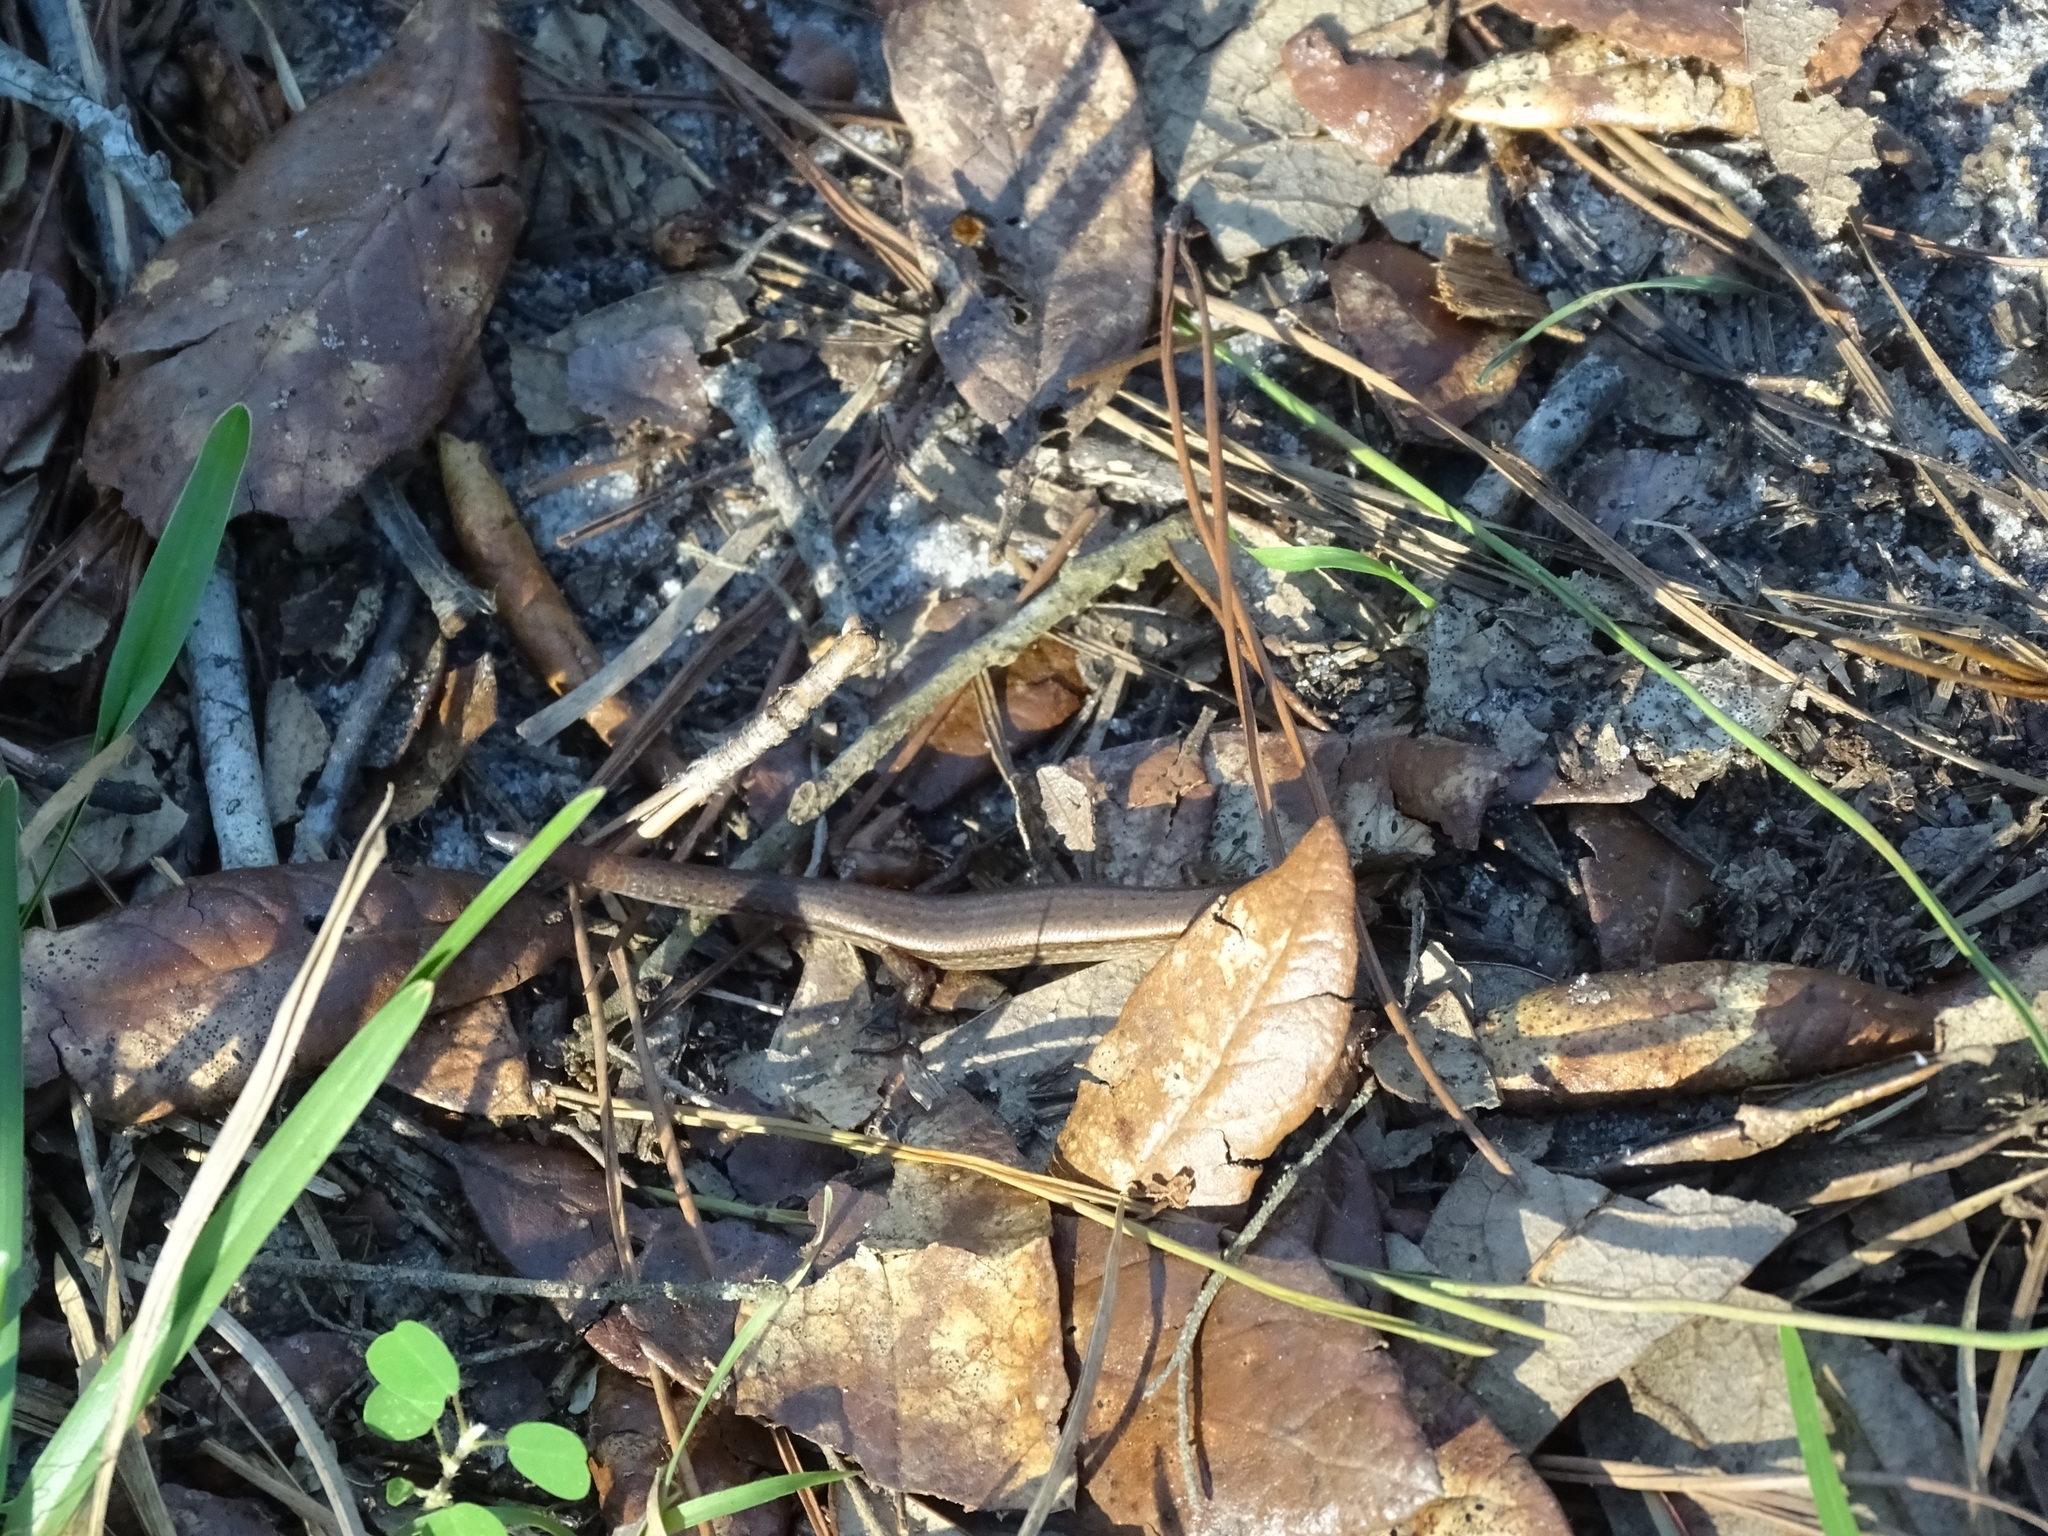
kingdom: Animalia
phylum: Chordata
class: Squamata
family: Scincidae
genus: Scincella
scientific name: Scincella lateralis
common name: Ground skink
